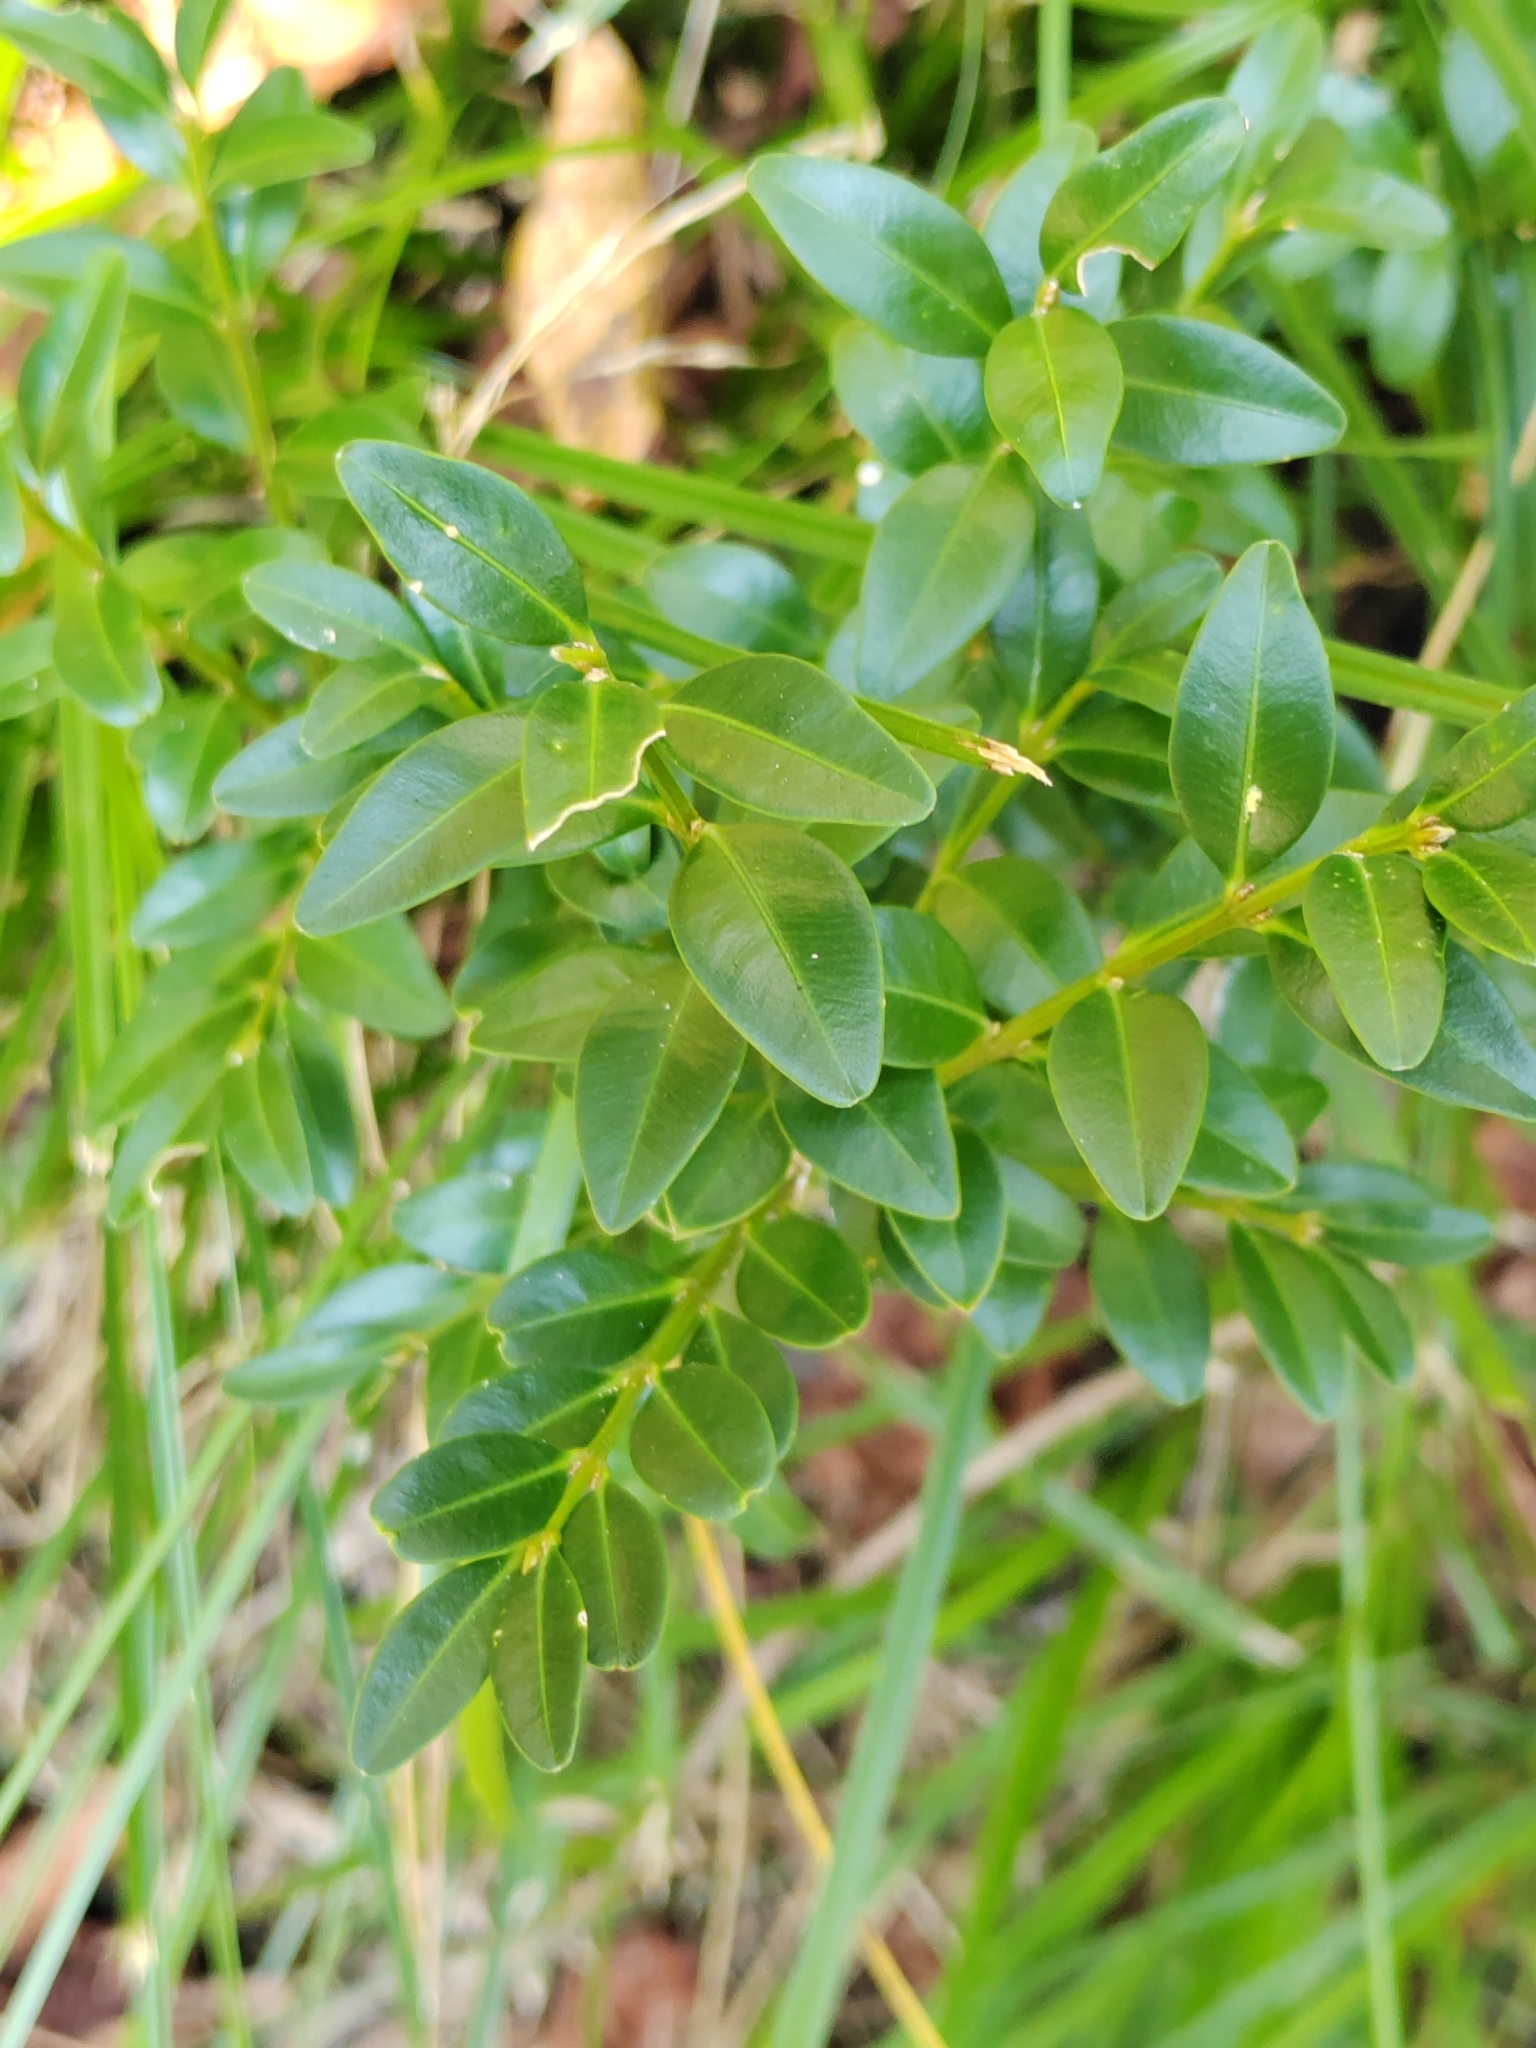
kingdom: Plantae
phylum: Tracheophyta
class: Magnoliopsida
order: Buxales
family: Buxaceae
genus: Buxus
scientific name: Buxus sempervirens
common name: Box
